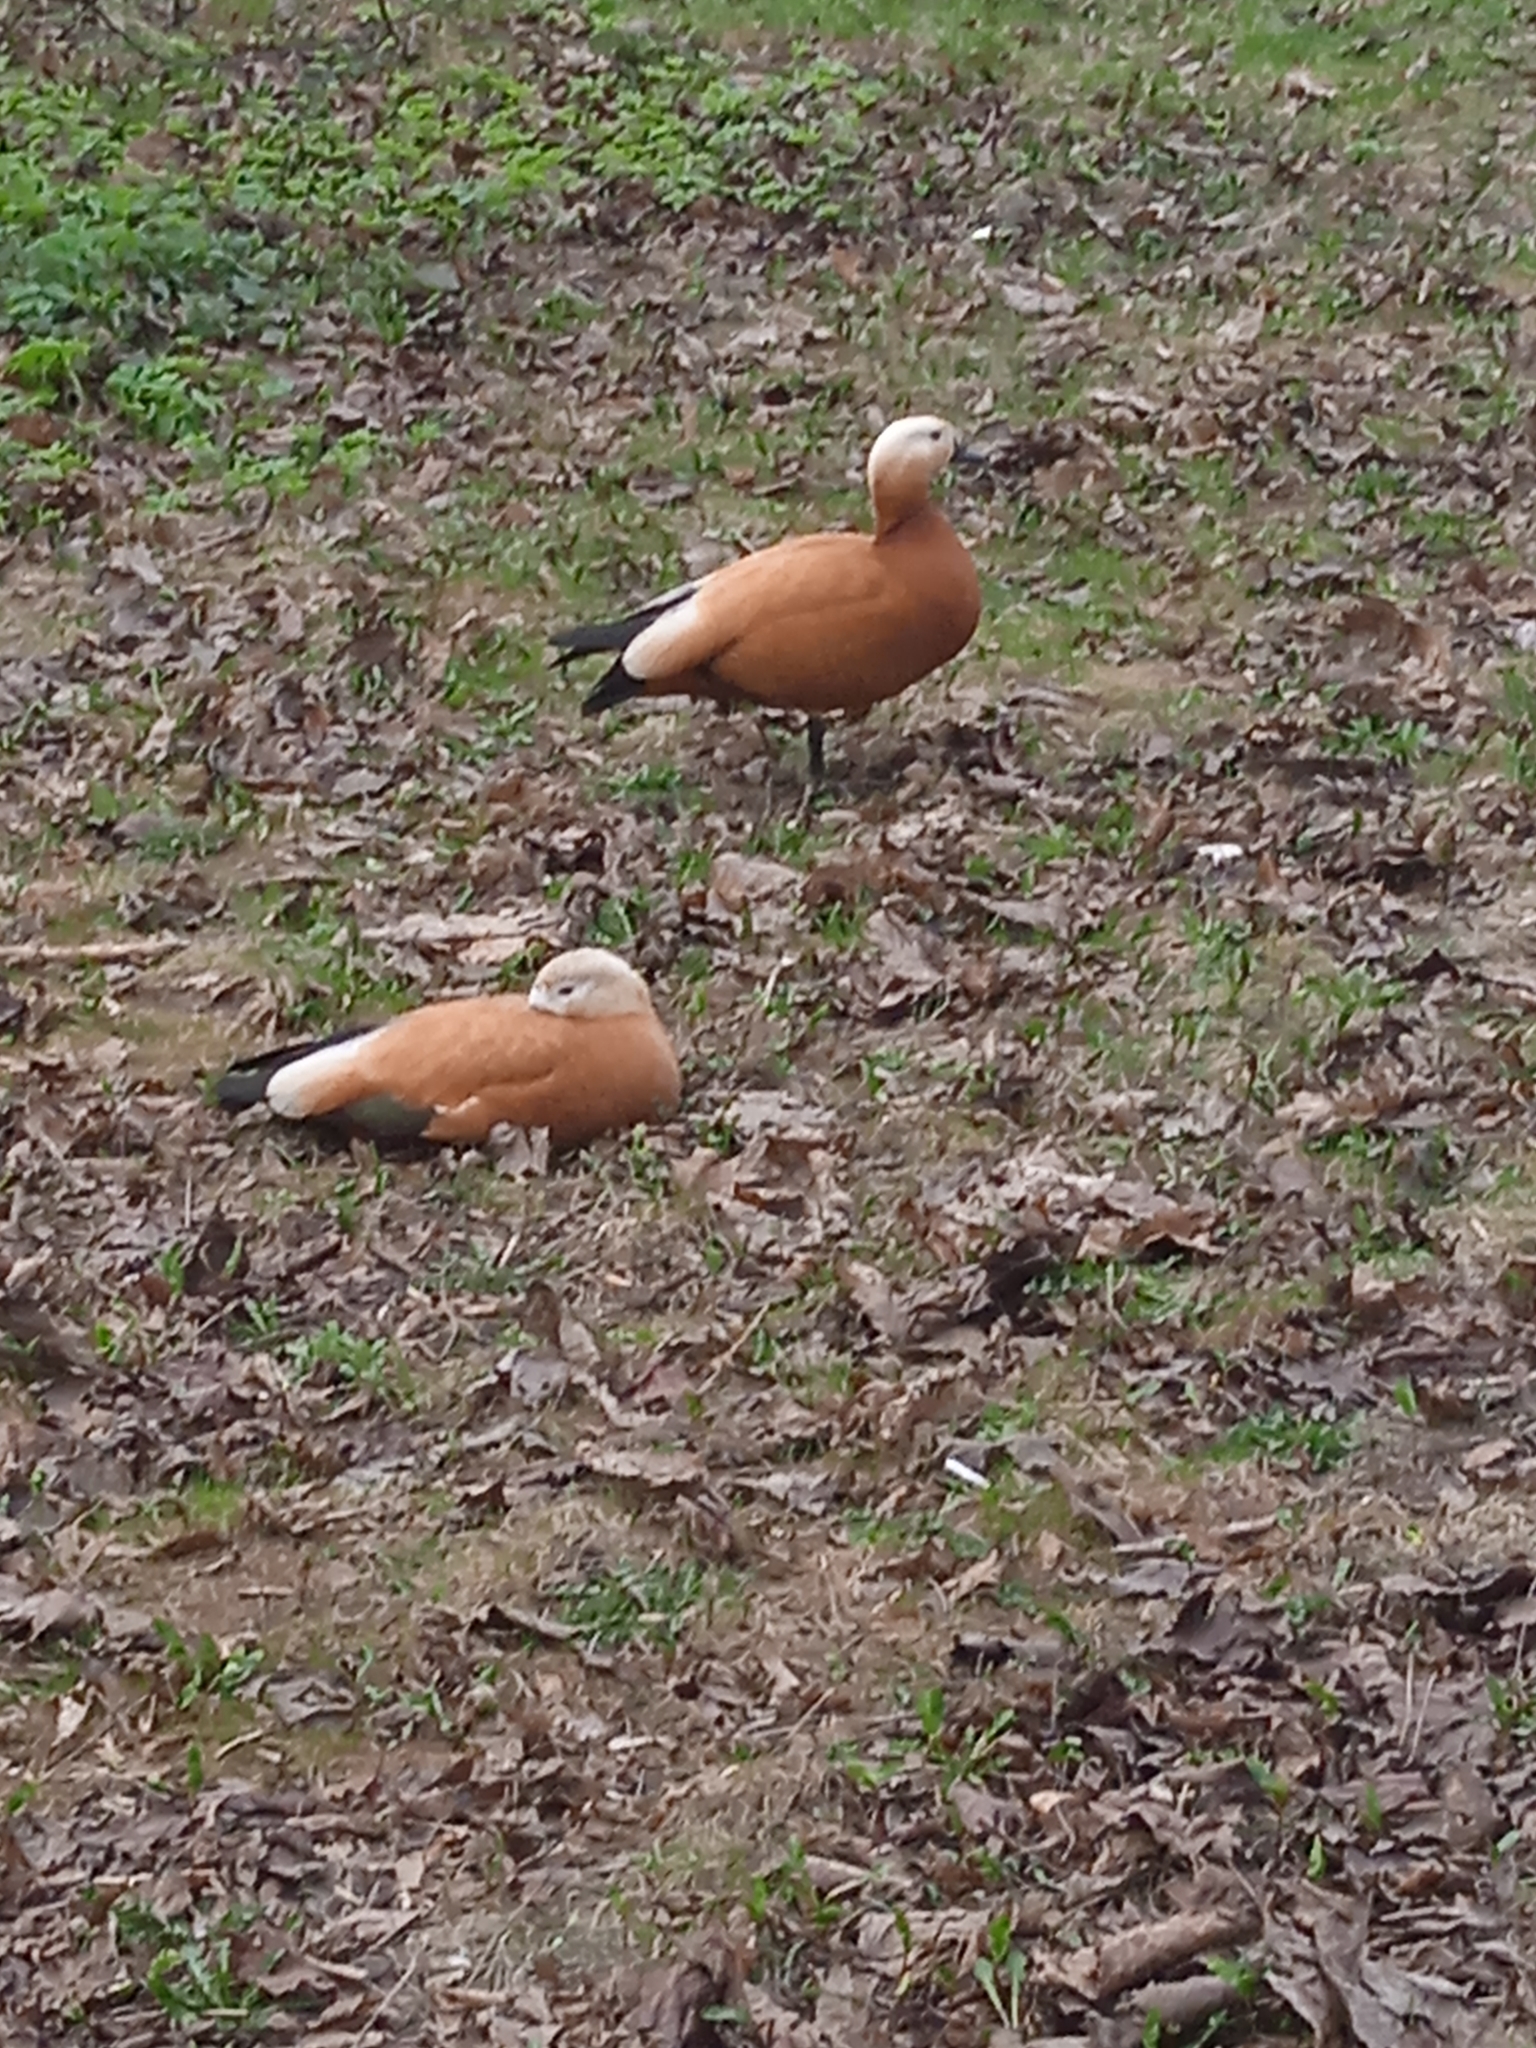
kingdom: Animalia
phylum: Chordata
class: Aves
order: Anseriformes
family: Anatidae
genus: Tadorna
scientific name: Tadorna ferruginea
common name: Ruddy shelduck
